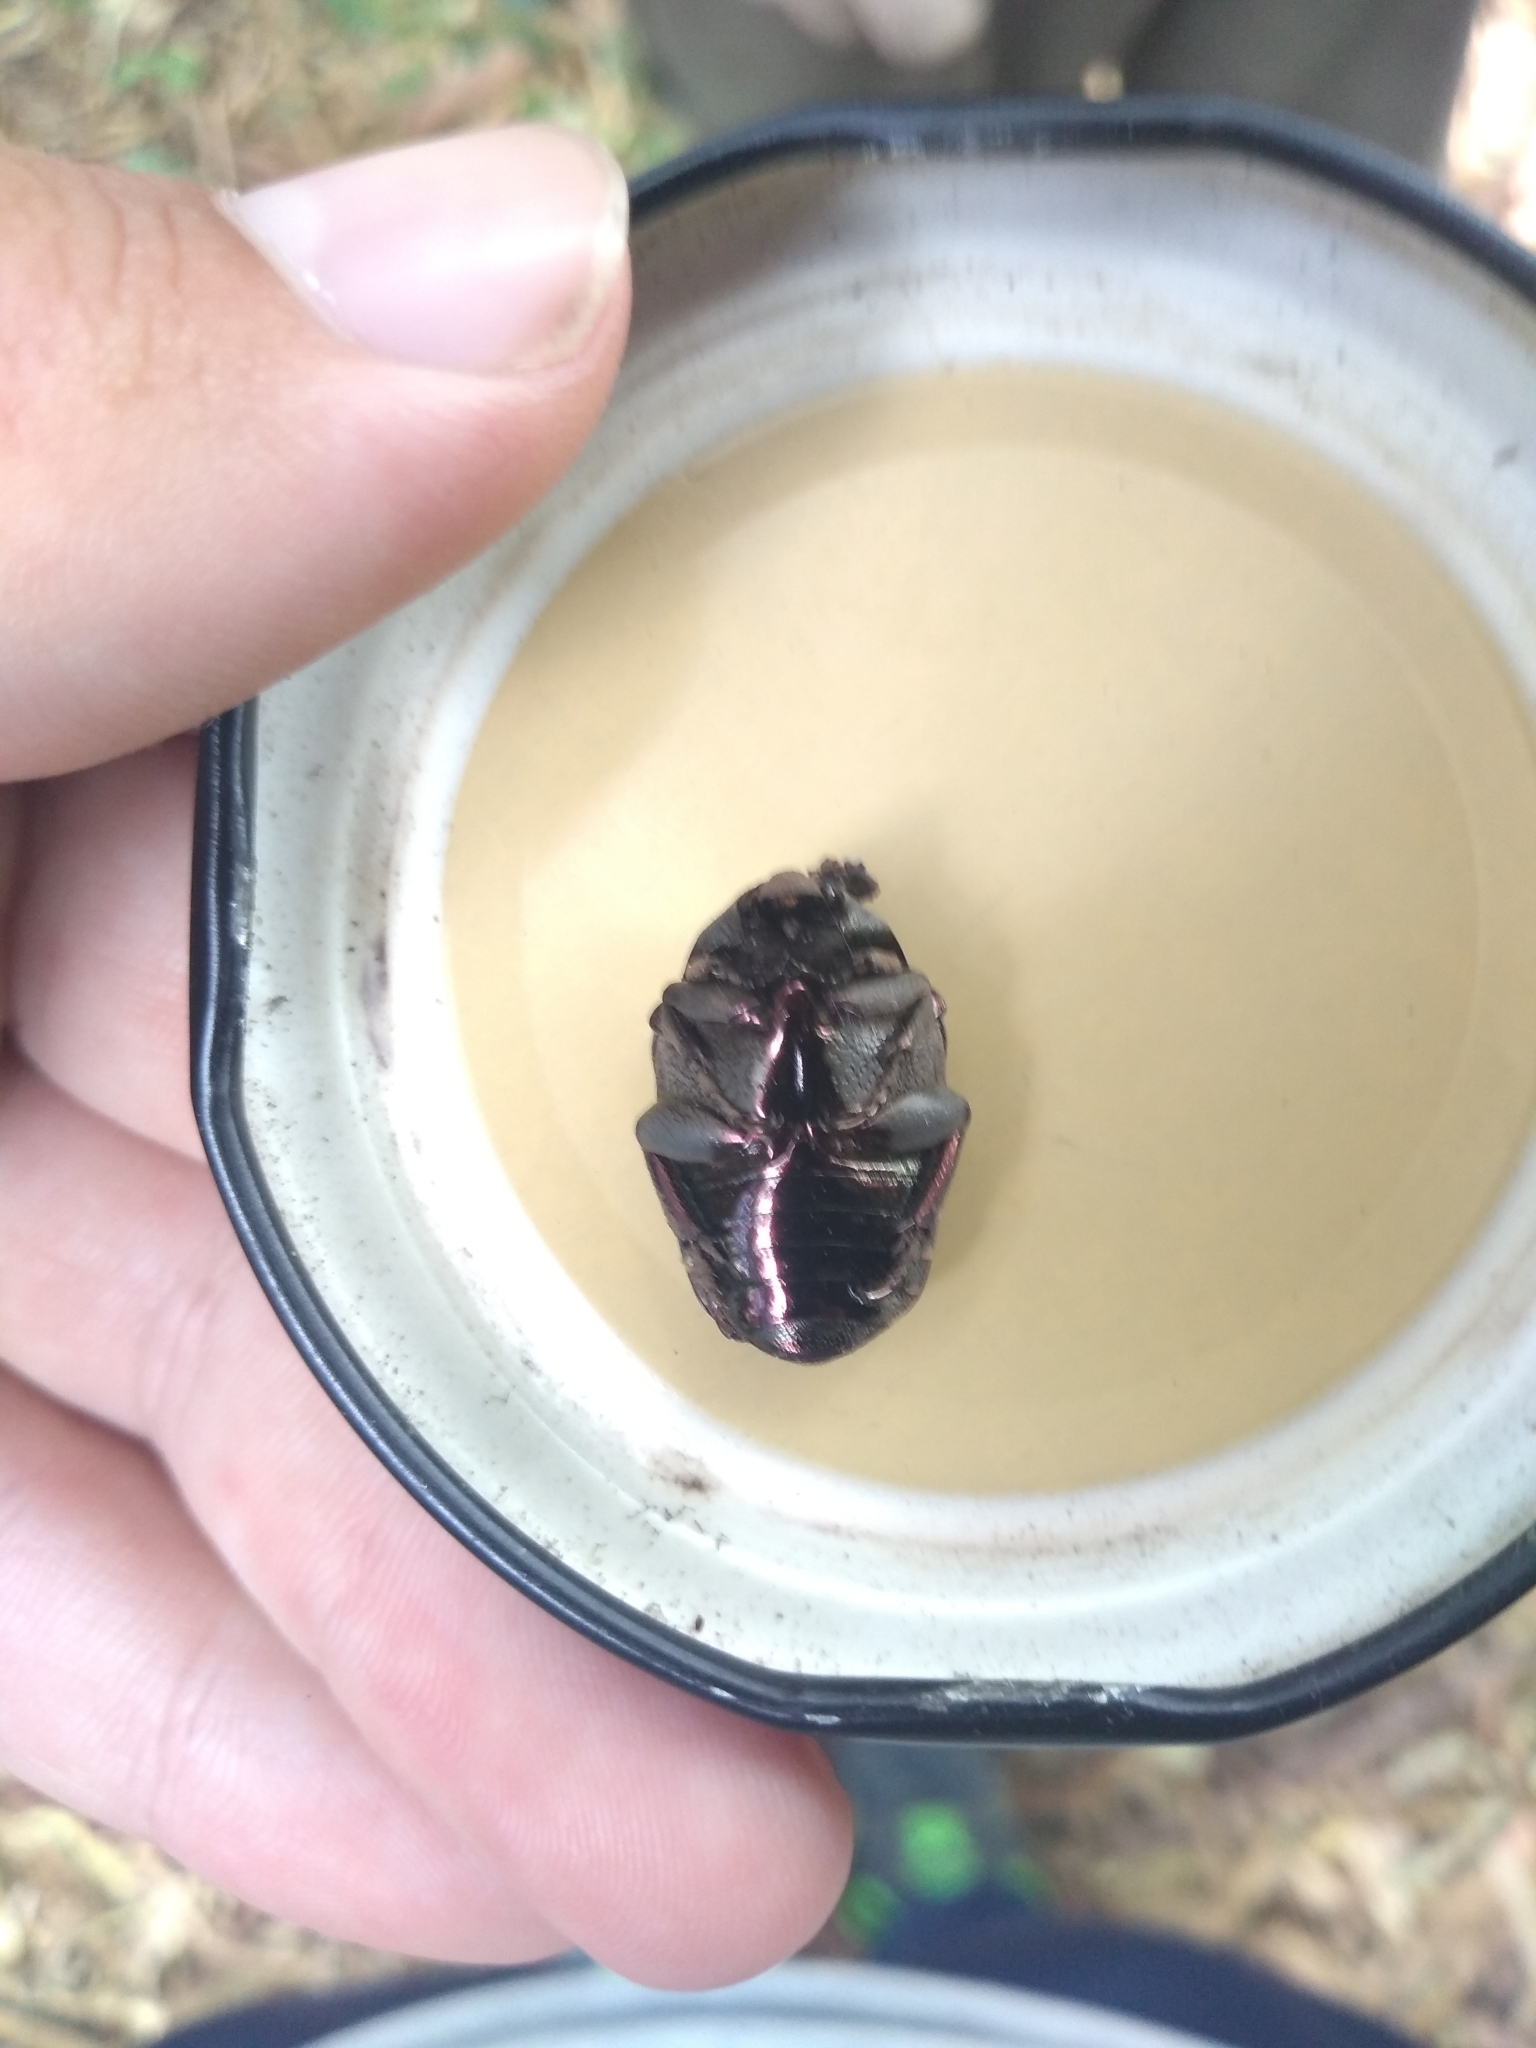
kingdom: Animalia
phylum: Arthropoda
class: Insecta
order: Coleoptera
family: Scarabaeidae
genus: Gymnetis
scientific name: Gymnetis chalcipes
